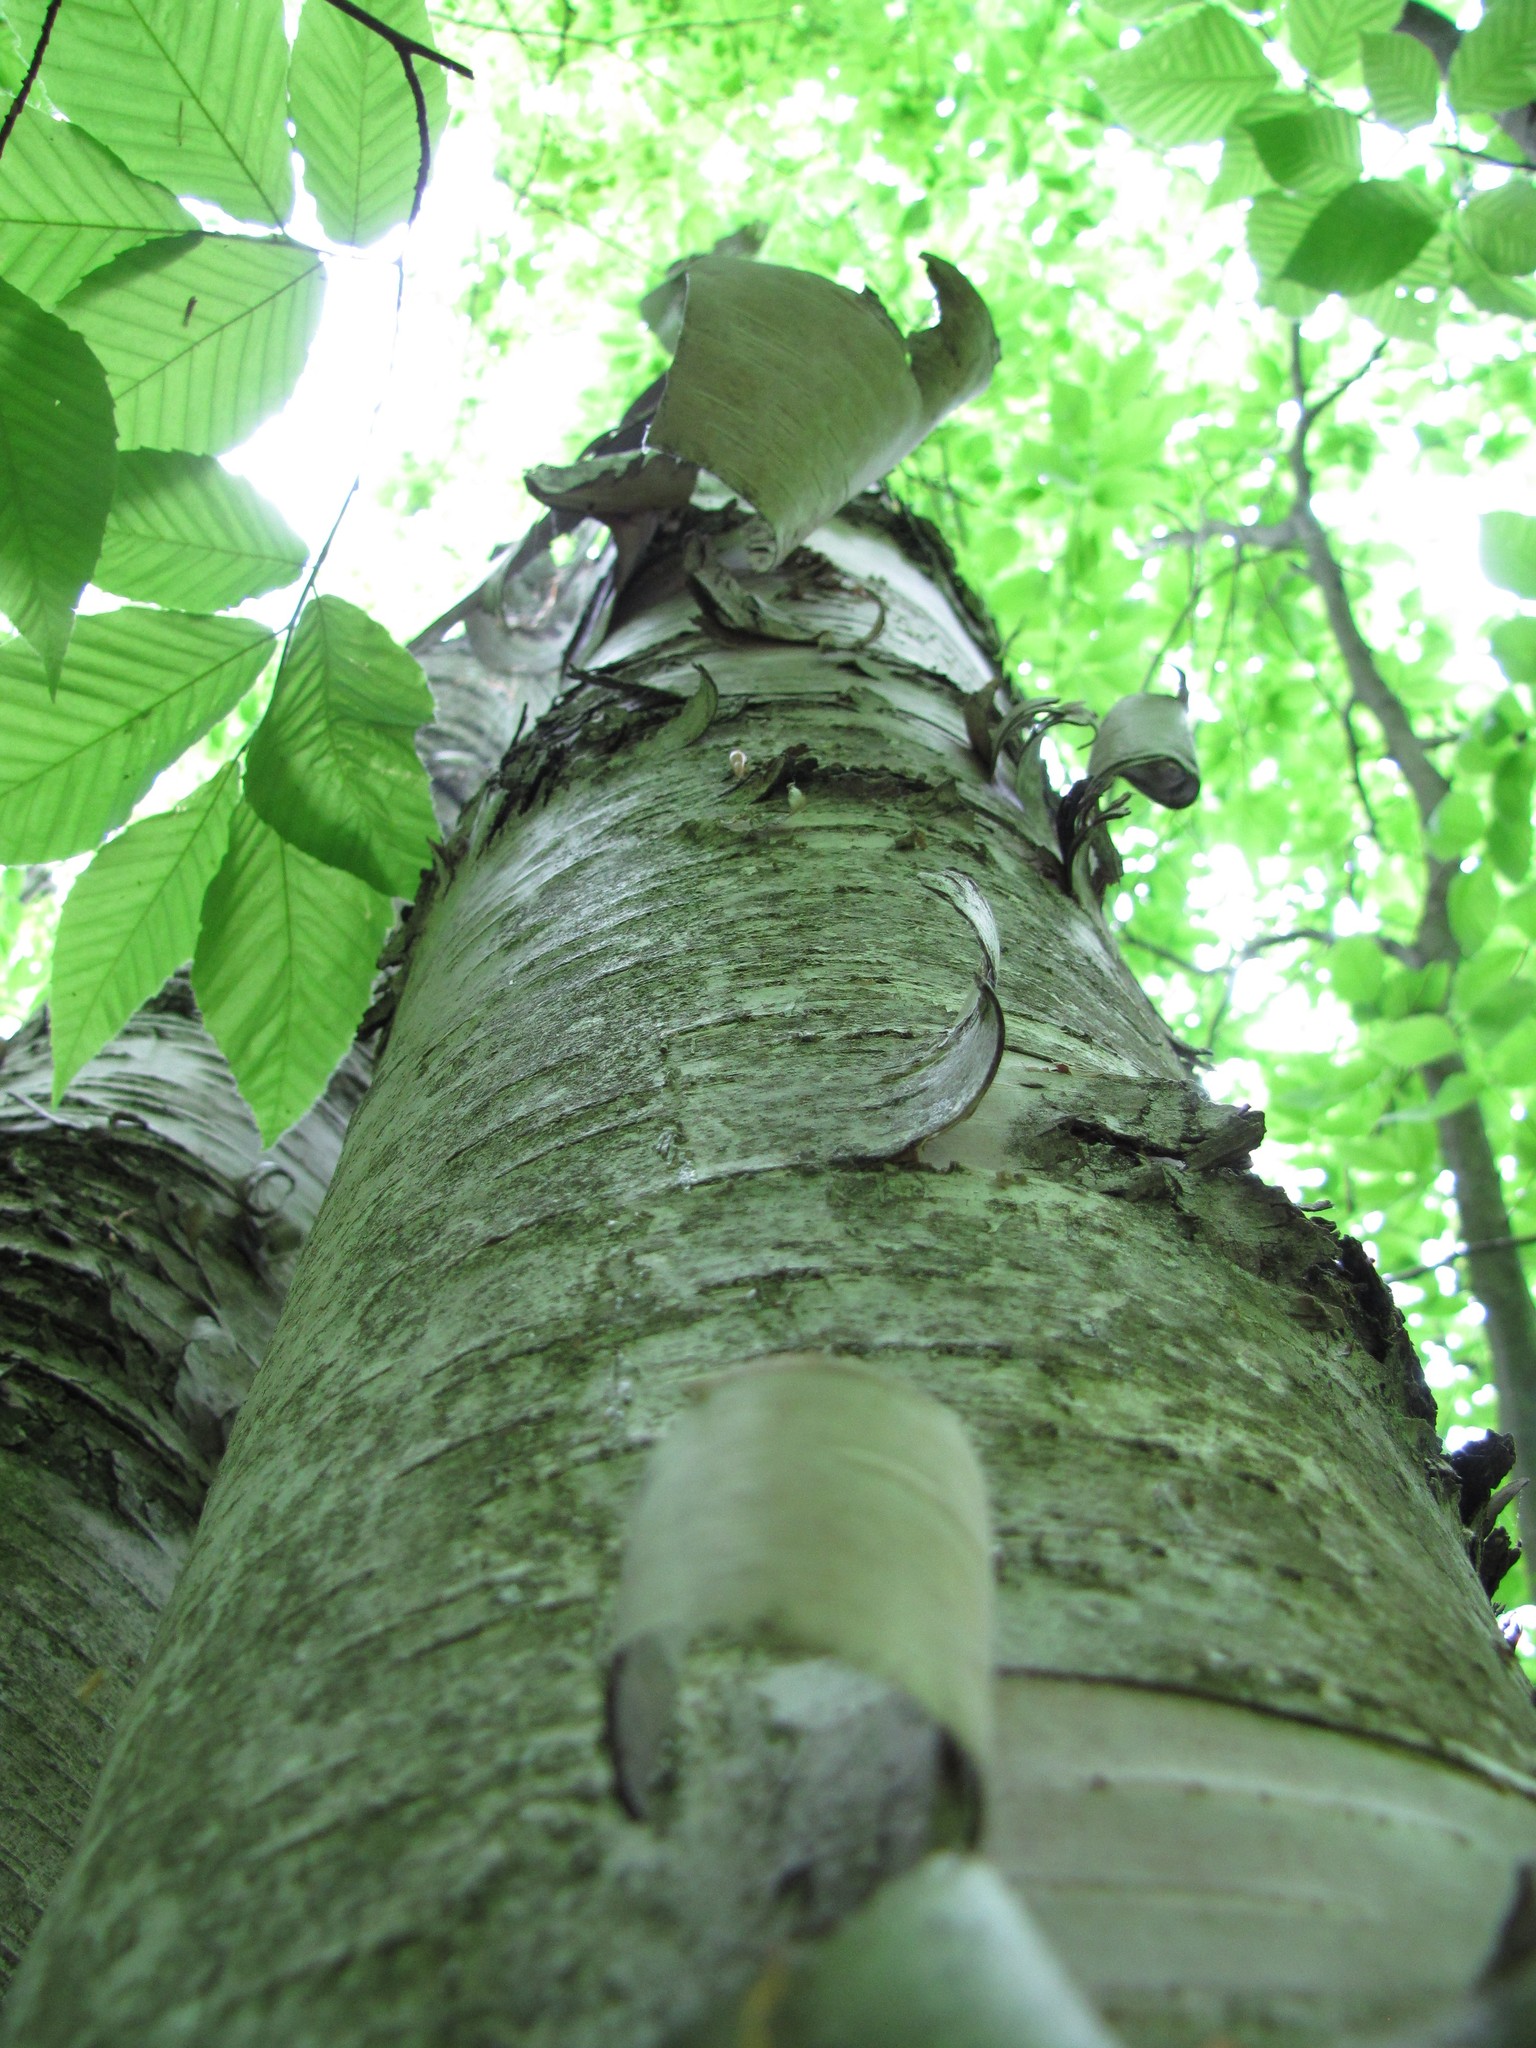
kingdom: Plantae
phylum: Tracheophyta
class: Magnoliopsida
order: Fagales
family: Betulaceae
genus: Betula
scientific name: Betula papyrifera
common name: Paper birch
